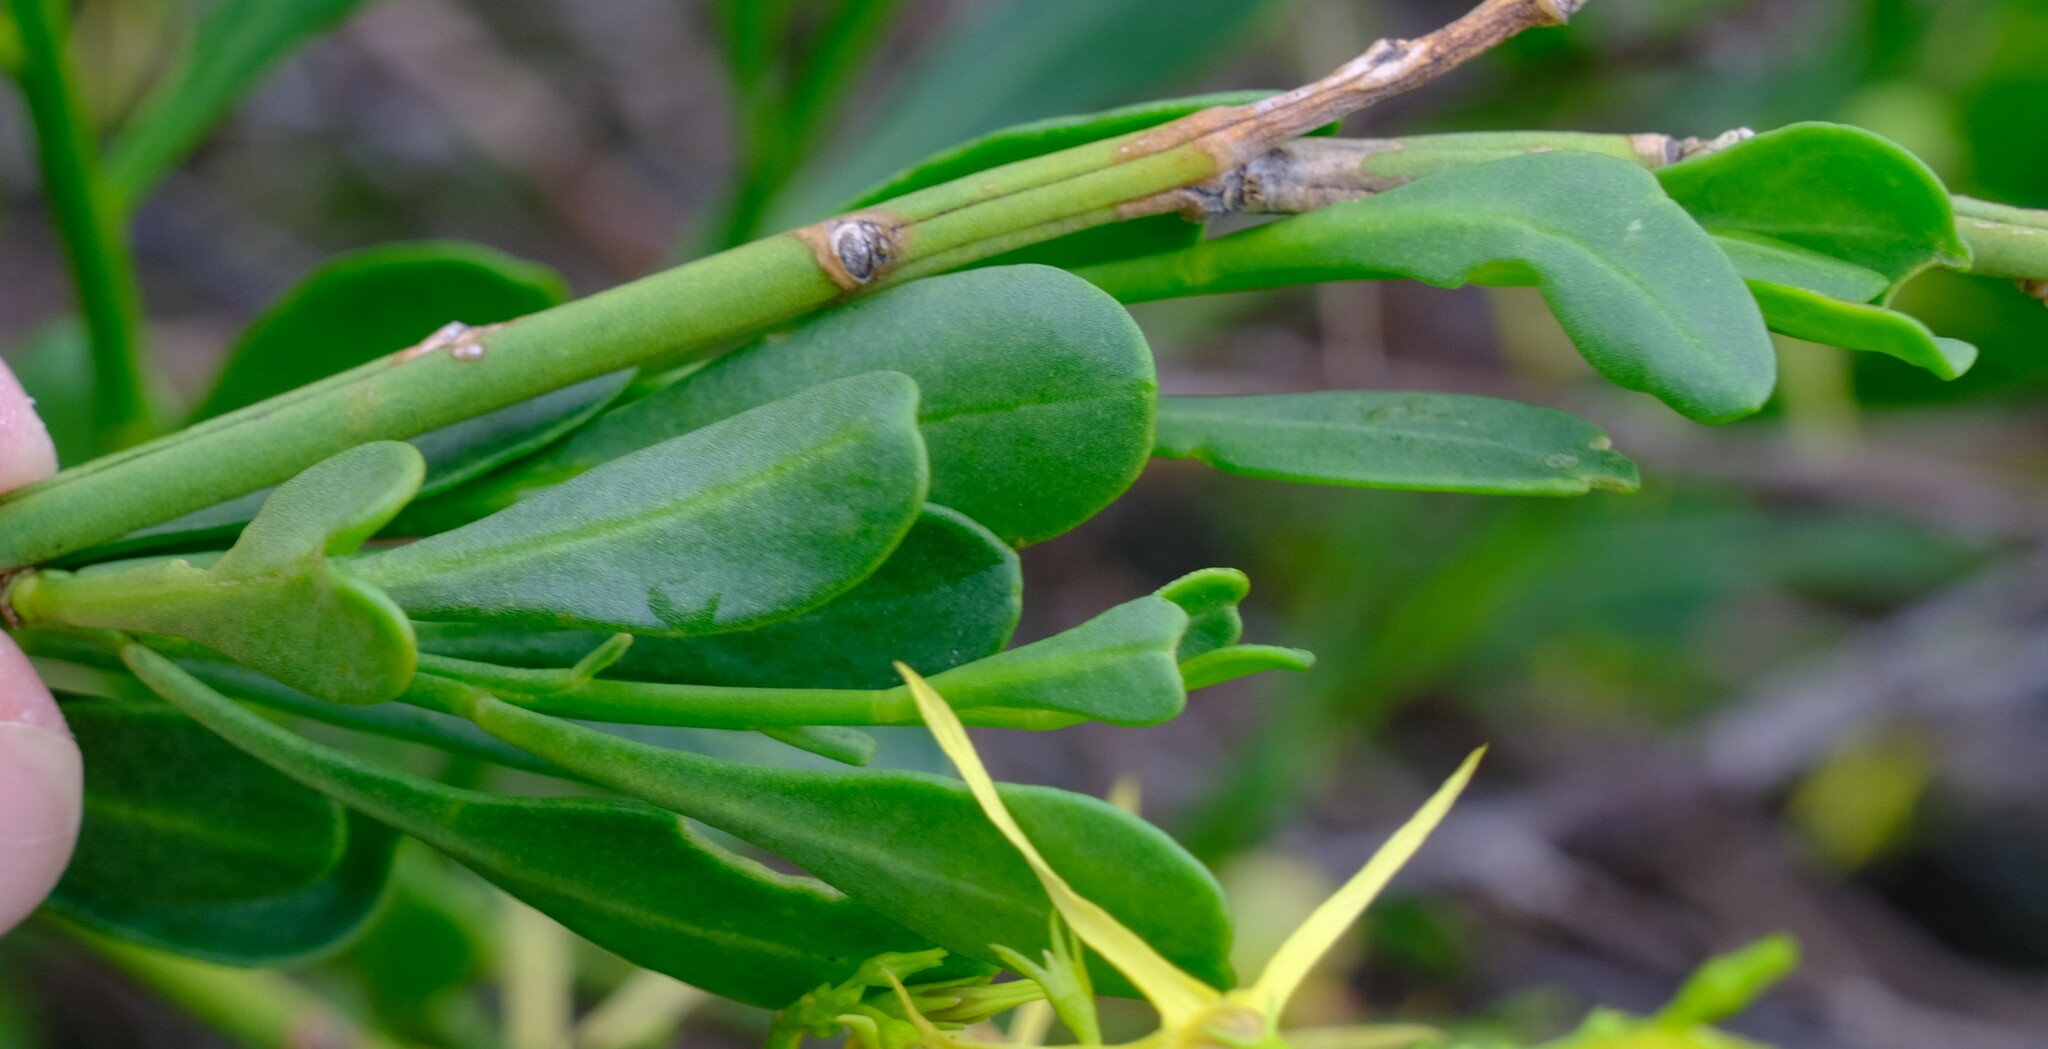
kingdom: Plantae
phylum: Tracheophyta
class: Magnoliopsida
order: Solanales
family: Solanaceae
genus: Anthocercis
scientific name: Anthocercis littorea
